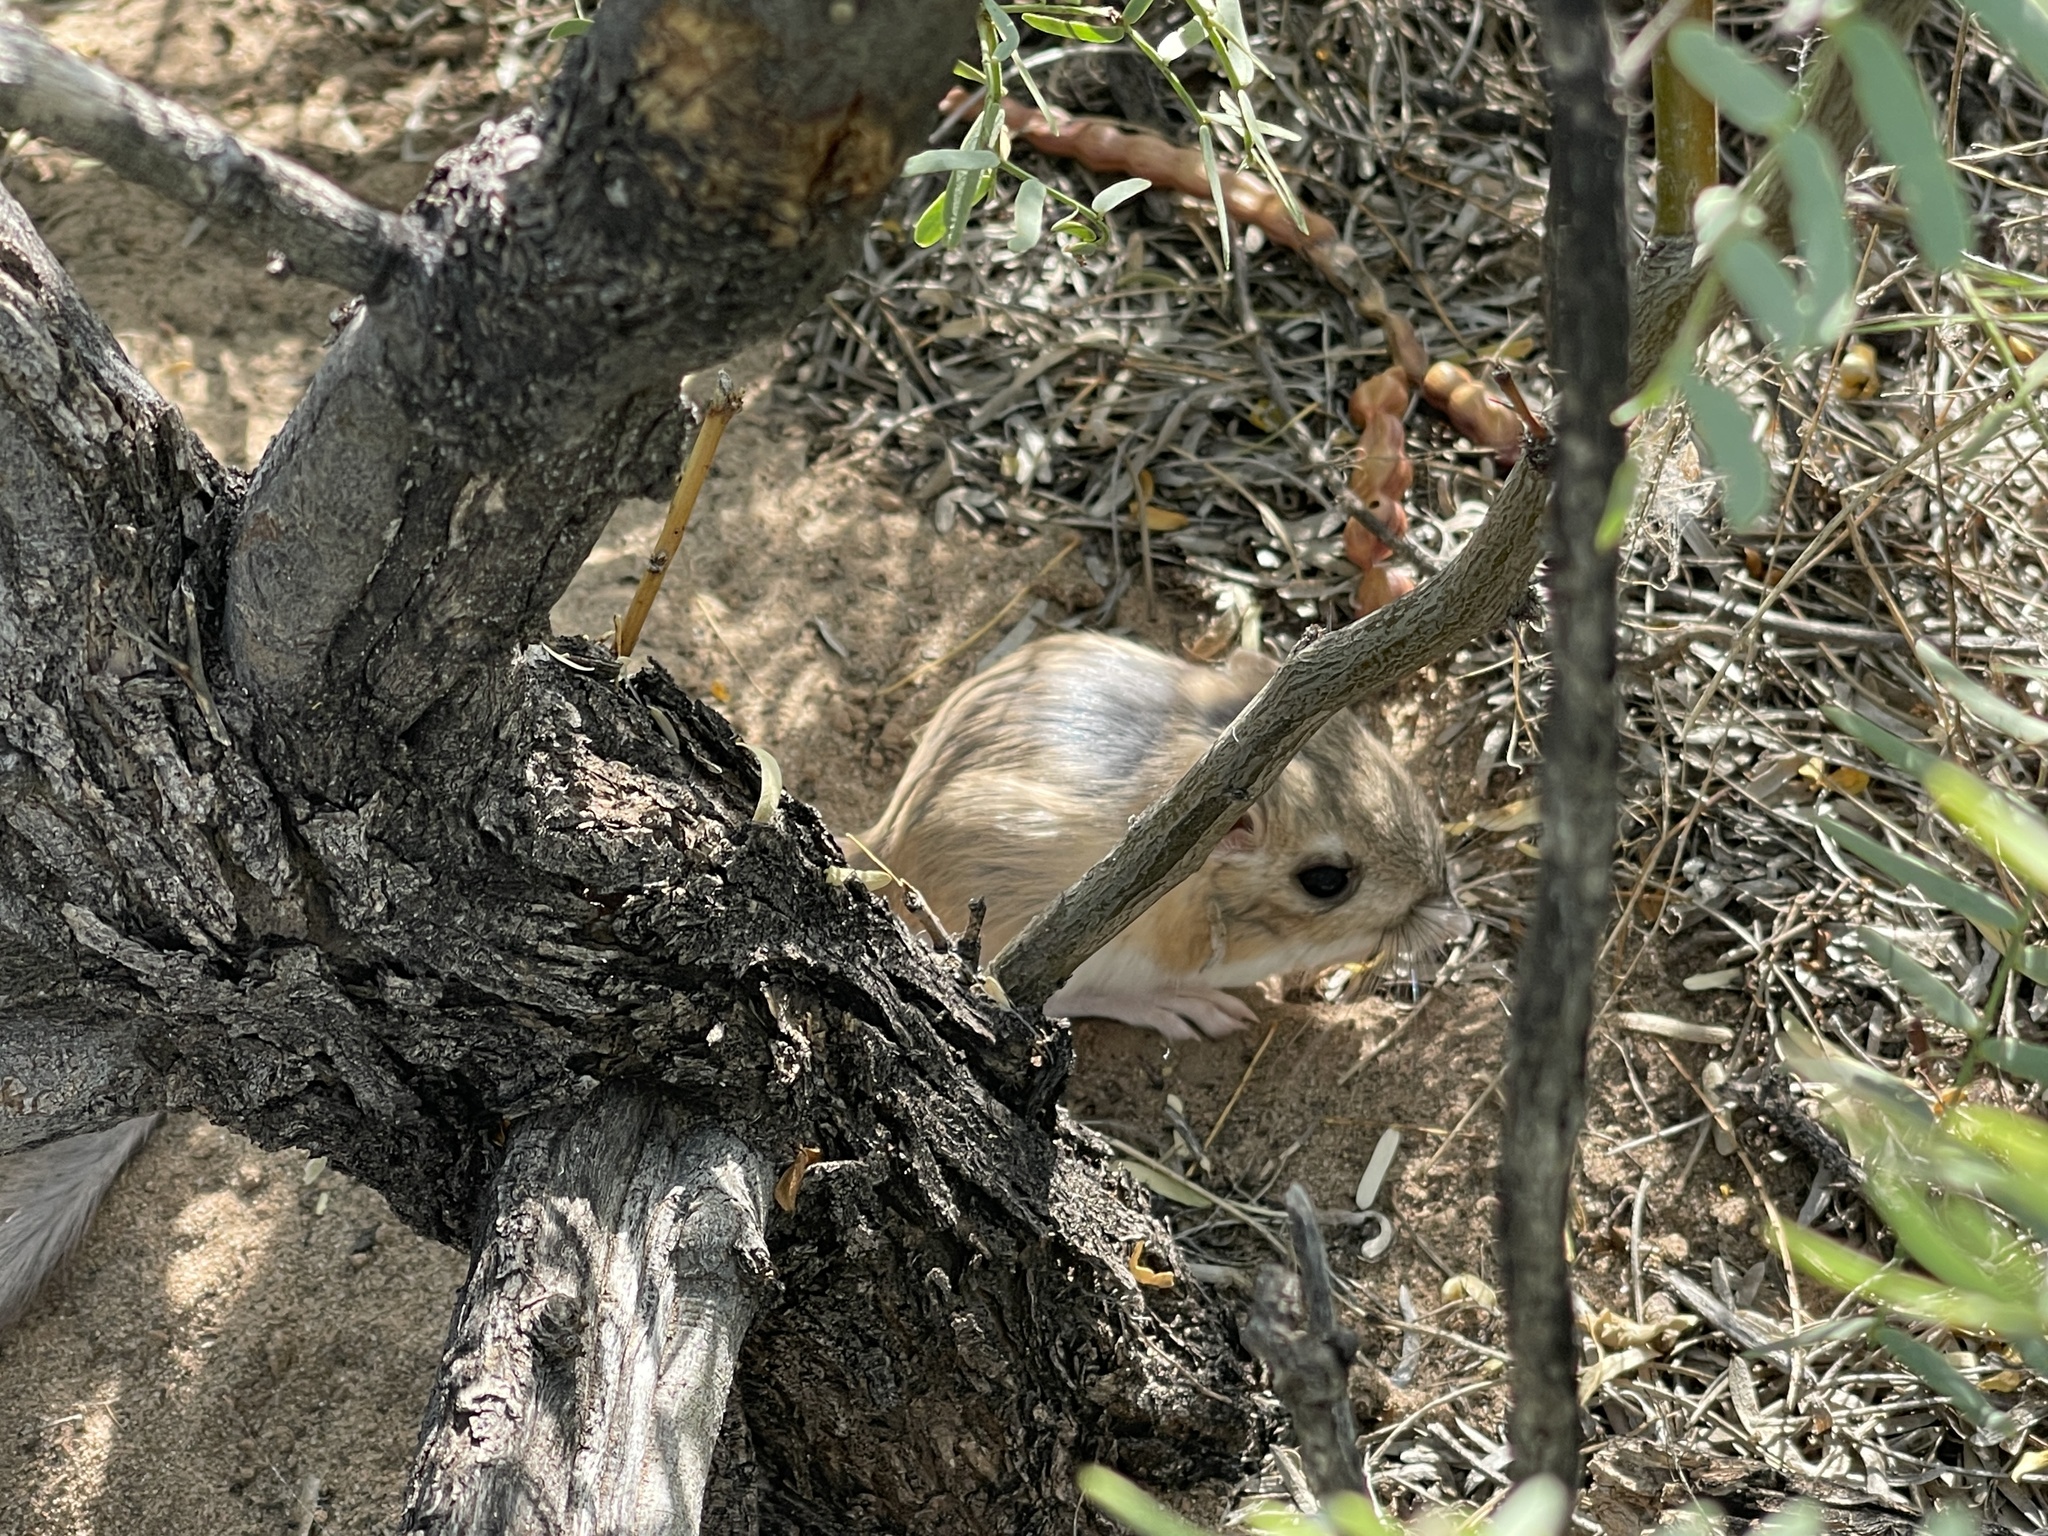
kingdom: Animalia
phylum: Chordata
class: Mammalia
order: Rodentia
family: Heteromyidae
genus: Dipodomys
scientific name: Dipodomys merriami
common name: Merriam's kangaroo rat
